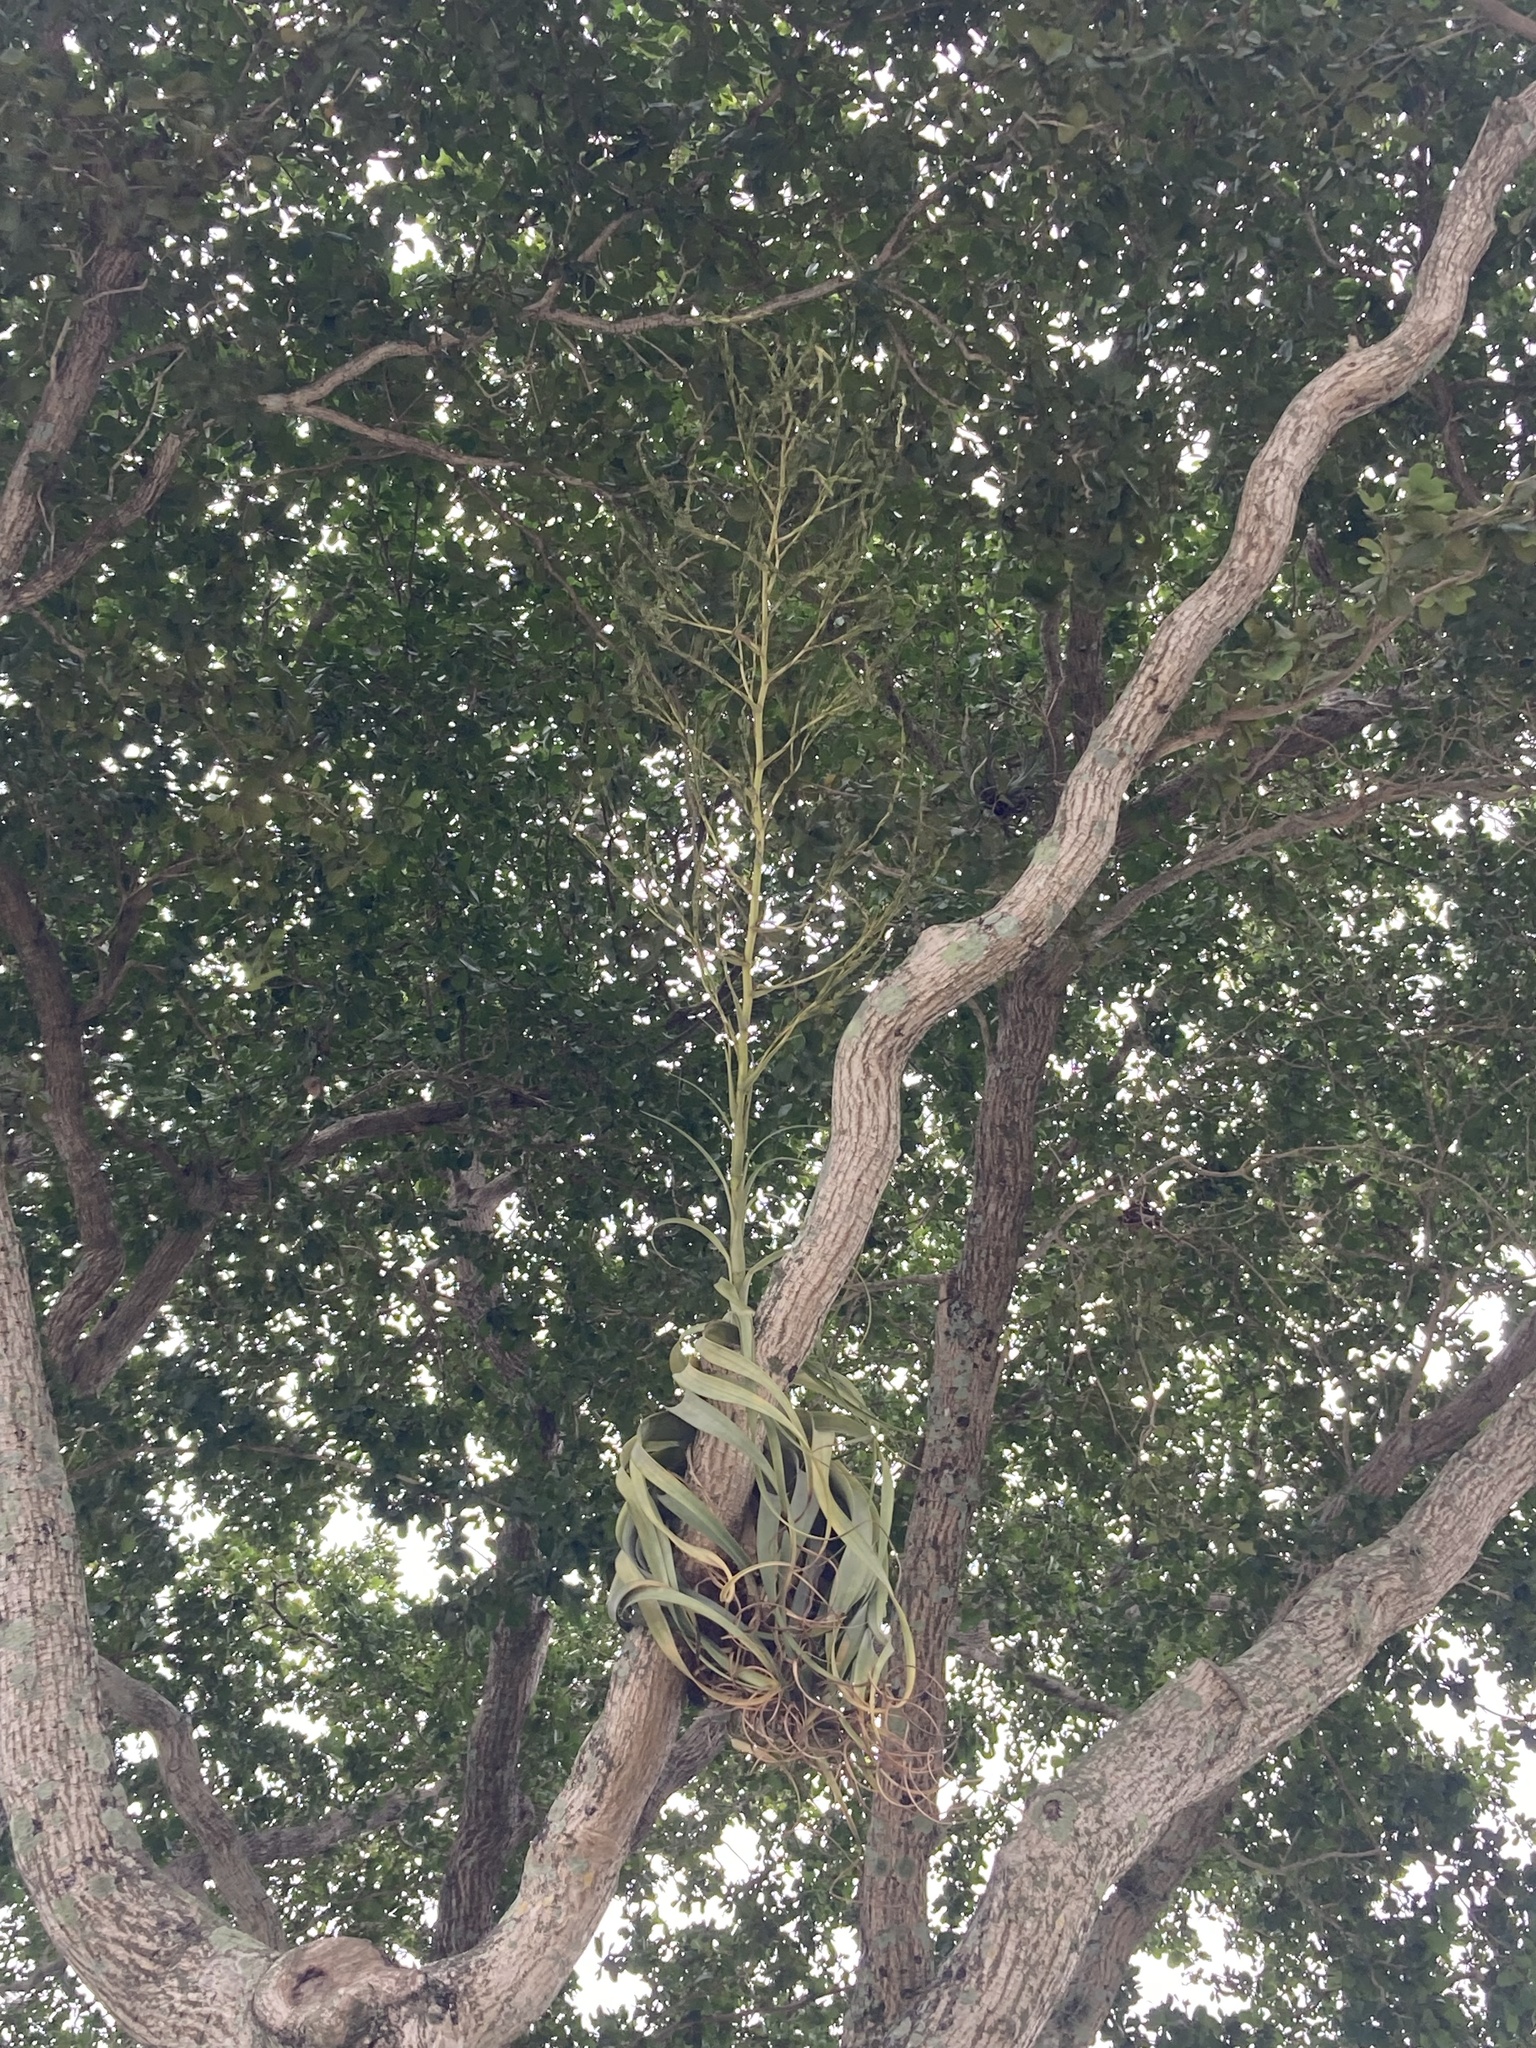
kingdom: Plantae
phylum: Tracheophyta
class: Liliopsida
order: Poales
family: Bromeliaceae
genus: Tillandsia
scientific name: Tillandsia utriculata
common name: Wild pine
